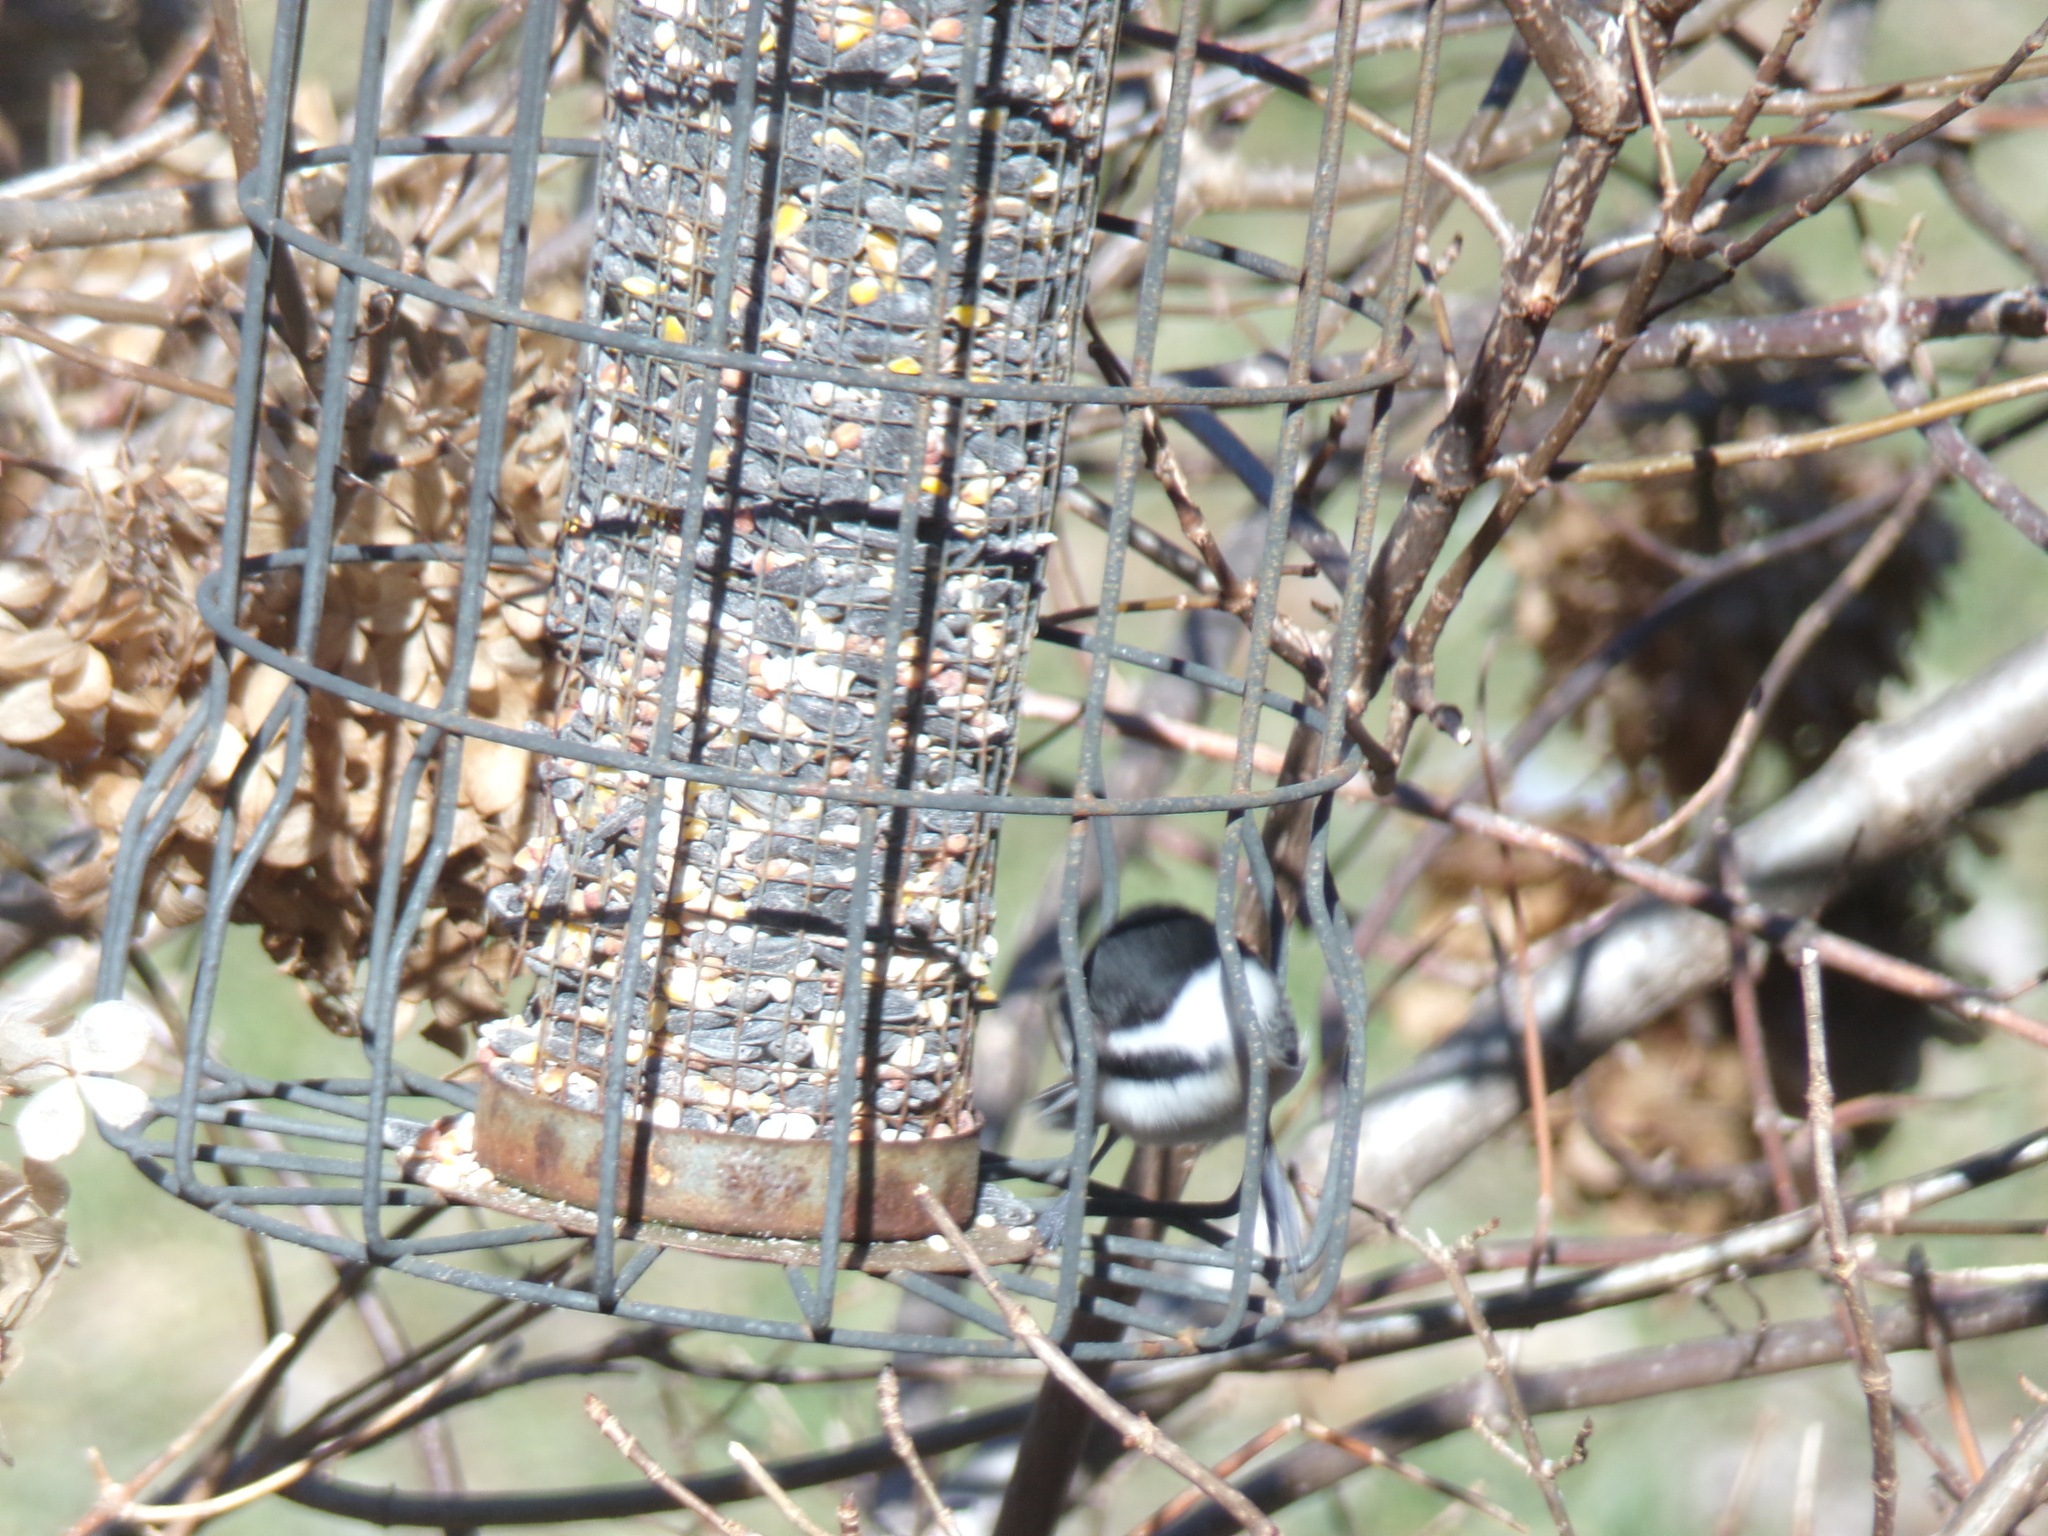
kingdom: Animalia
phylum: Chordata
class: Aves
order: Passeriformes
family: Paridae
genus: Poecile
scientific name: Poecile atricapillus
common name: Black-capped chickadee
